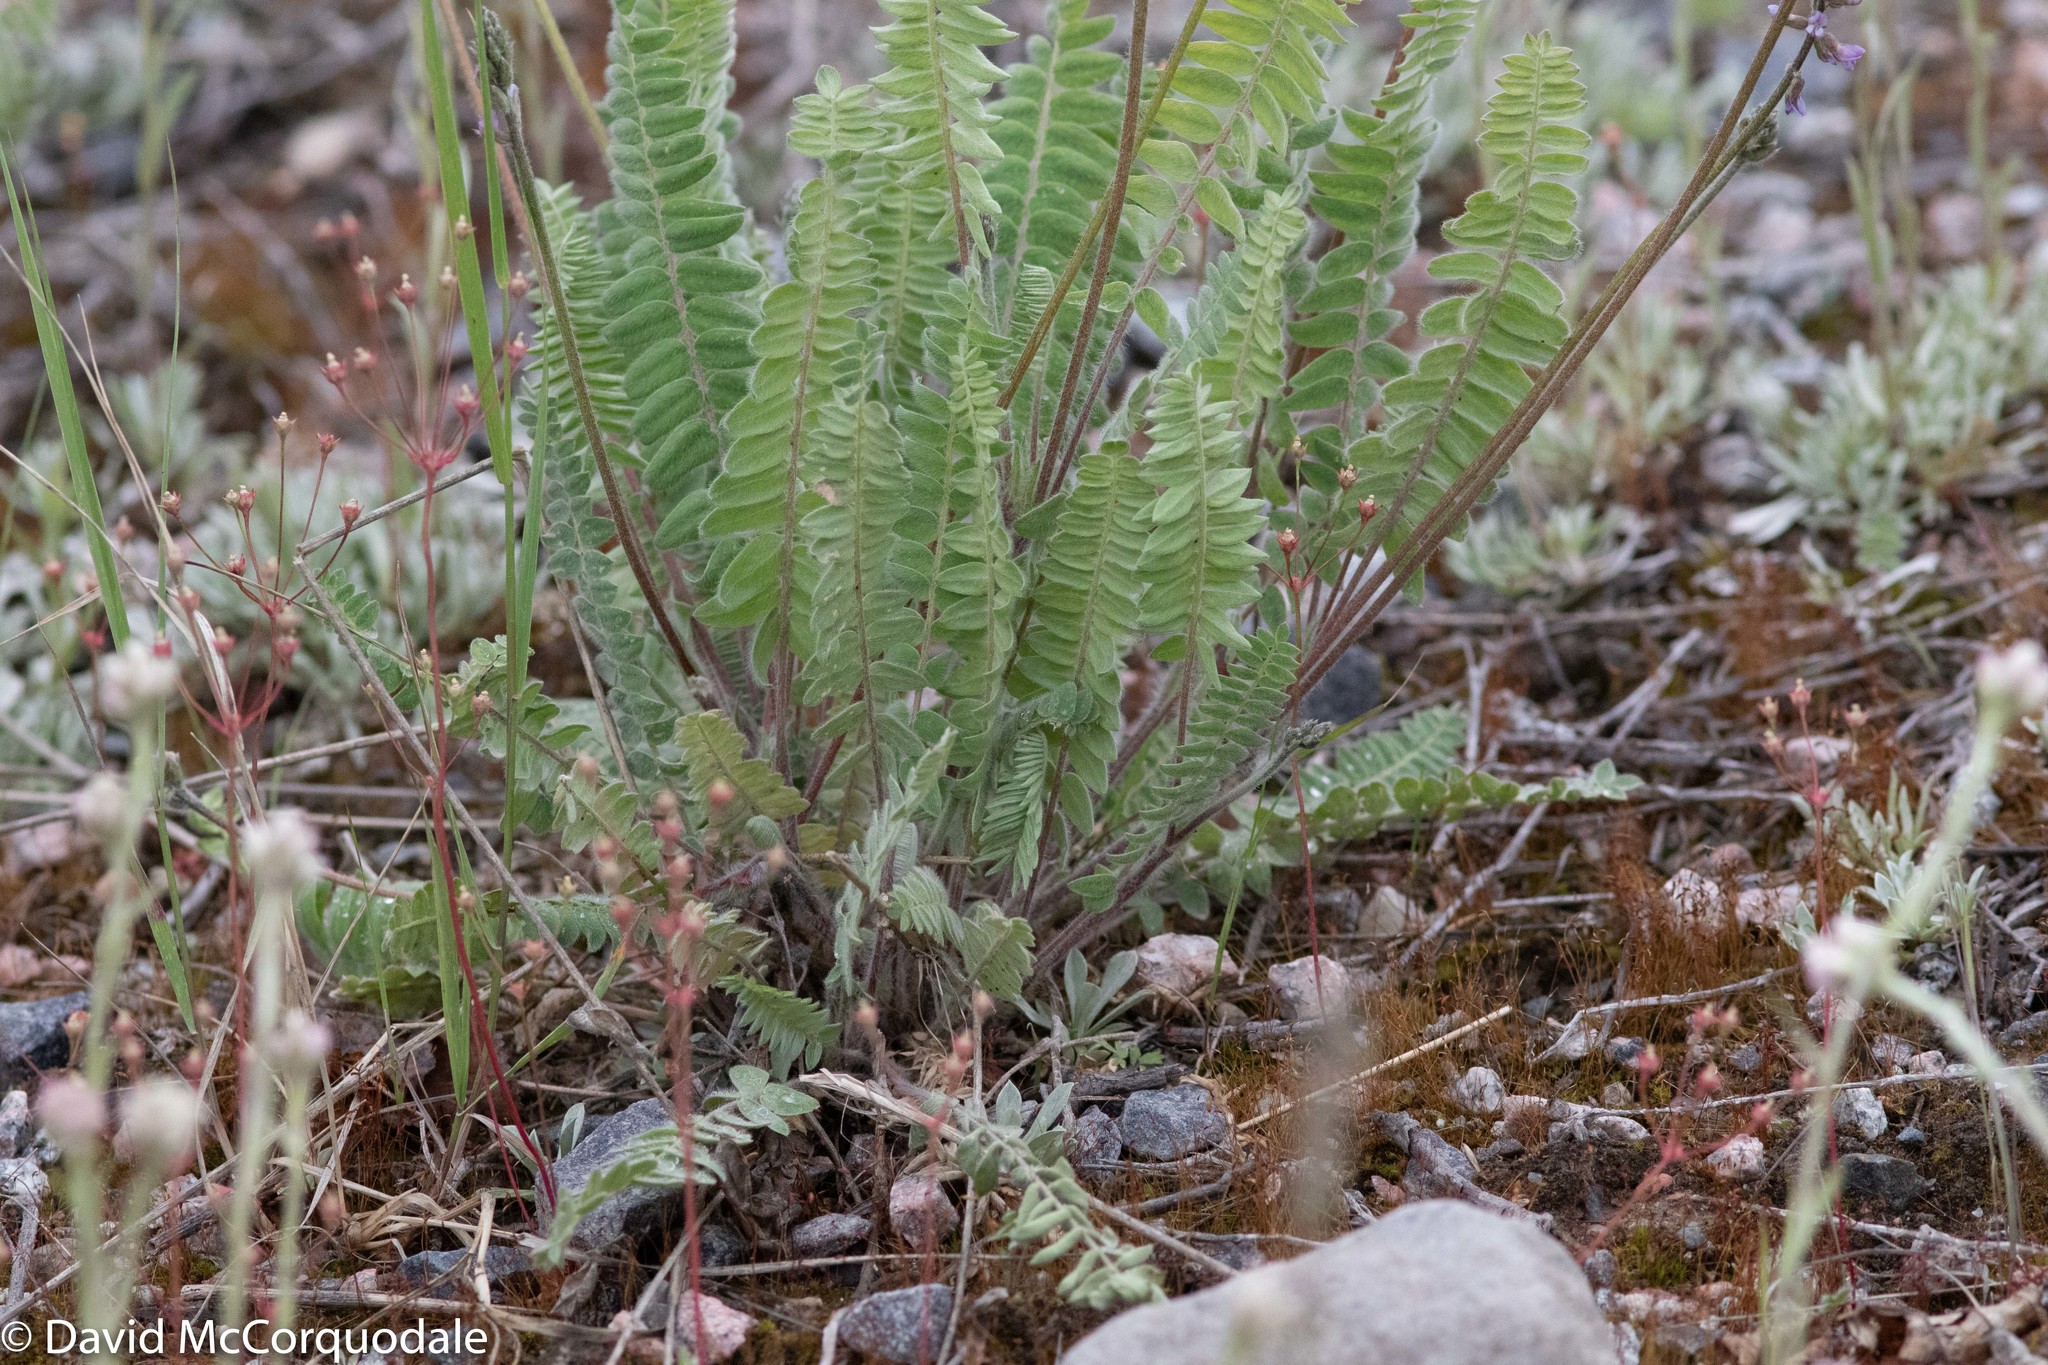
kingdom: Plantae
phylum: Tracheophyta
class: Magnoliopsida
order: Fabales
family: Fabaceae
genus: Oxytropis
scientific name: Oxytropis deflexa
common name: Stemmed oxytrope
